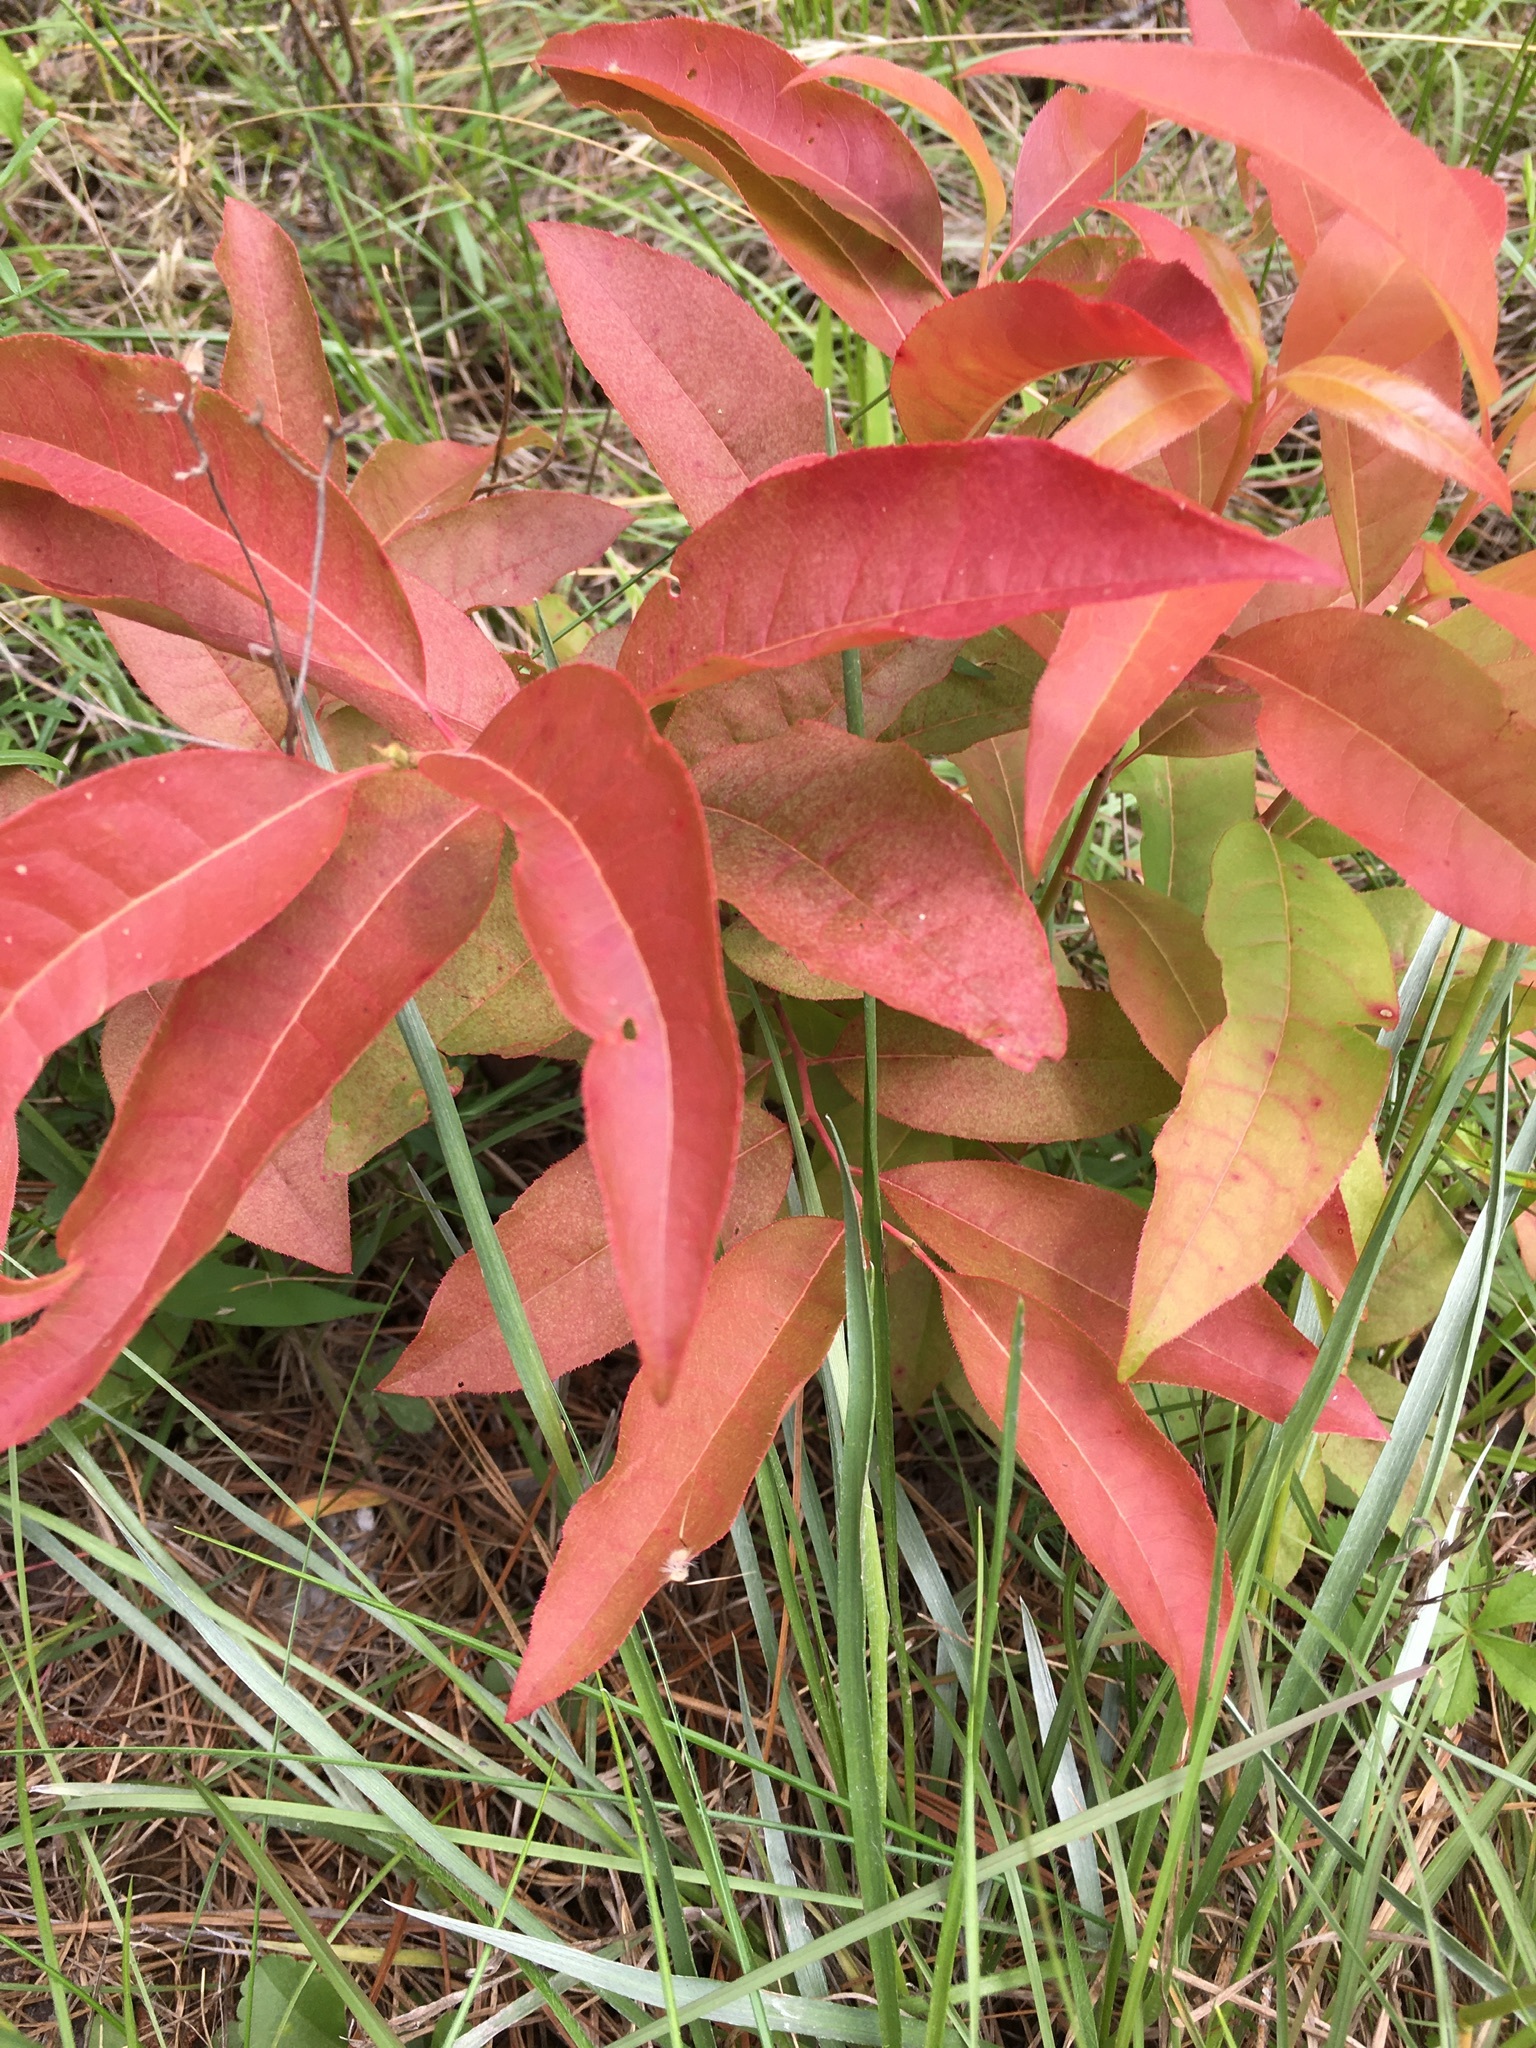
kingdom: Plantae
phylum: Tracheophyta
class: Magnoliopsida
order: Ericales
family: Ericaceae
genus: Oxydendrum
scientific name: Oxydendrum arboreum
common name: Sourwood
